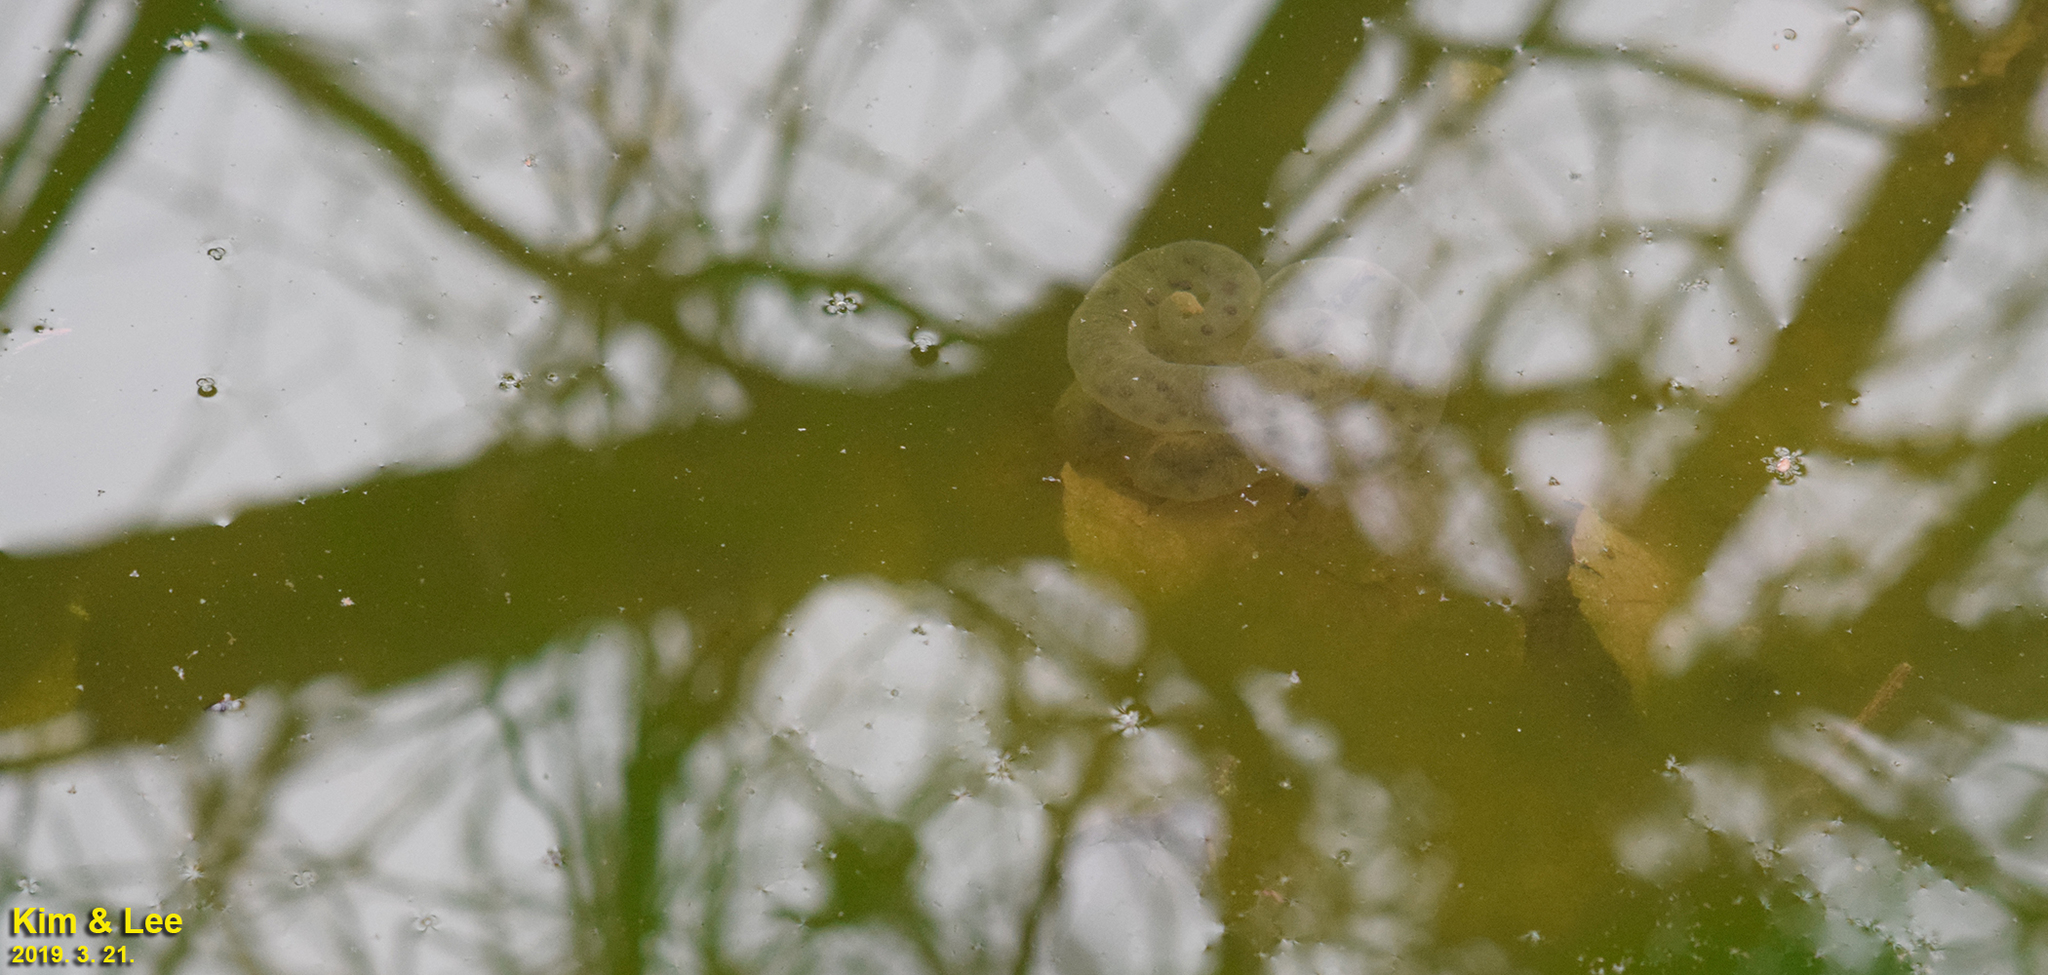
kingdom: Animalia
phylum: Chordata
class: Amphibia
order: Caudata
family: Hynobiidae
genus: Hynobius
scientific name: Hynobius leechii
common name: Gensan salamander
